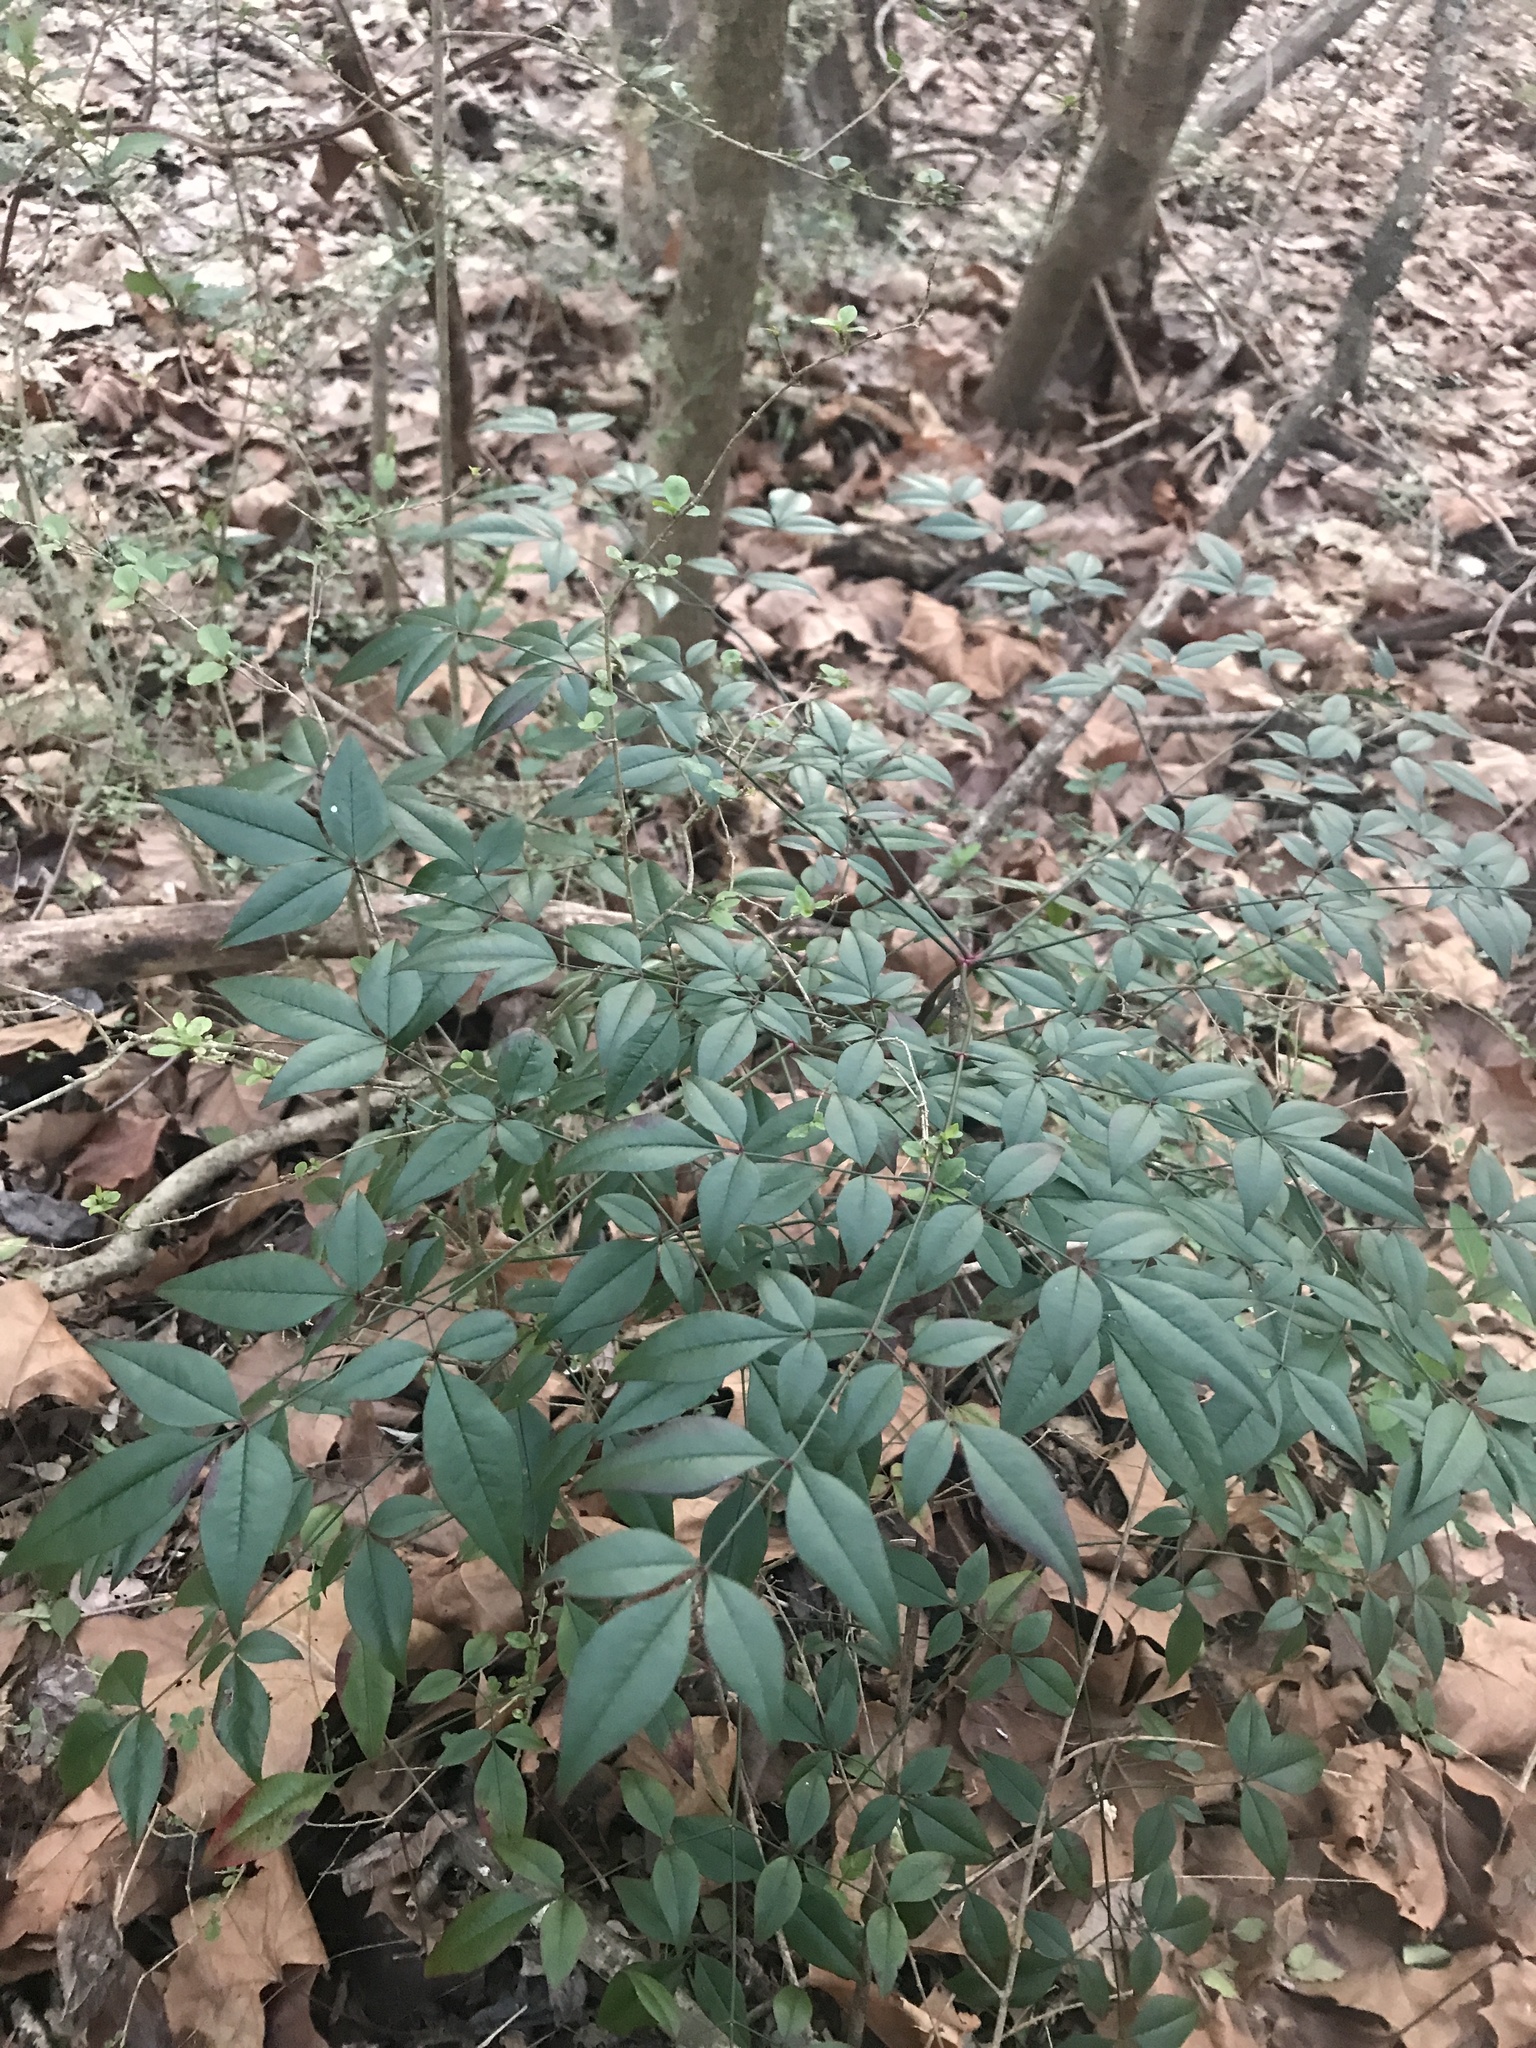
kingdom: Plantae
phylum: Tracheophyta
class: Magnoliopsida
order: Ranunculales
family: Berberidaceae
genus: Nandina
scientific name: Nandina domestica
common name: Sacred bamboo
